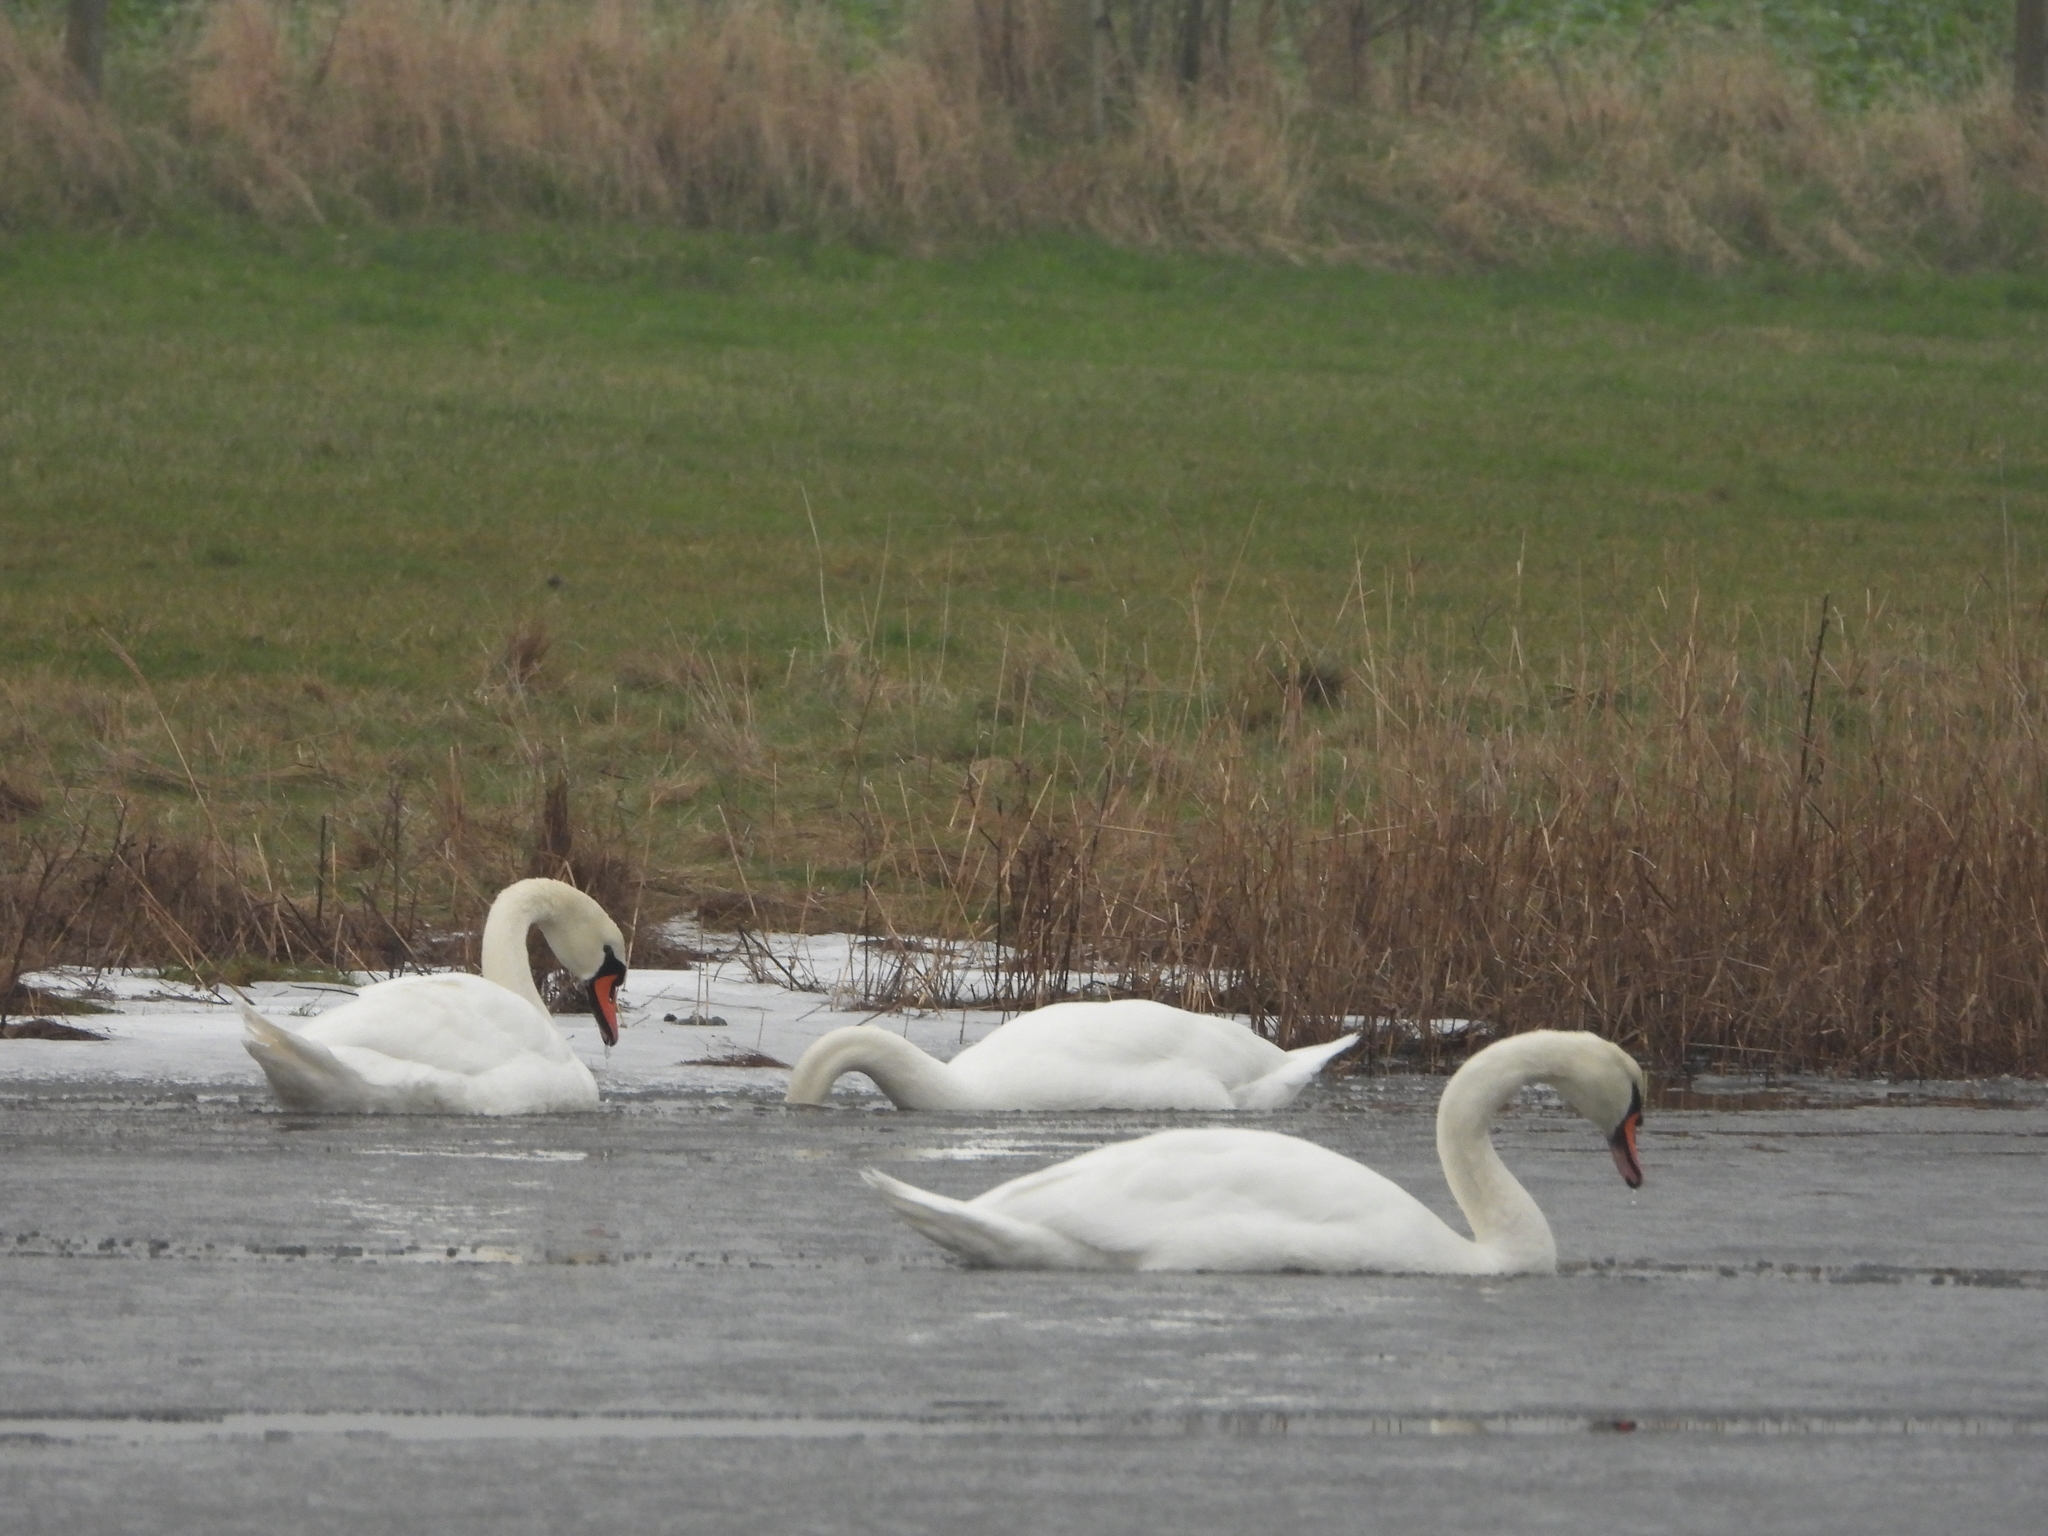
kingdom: Animalia
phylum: Chordata
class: Aves
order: Anseriformes
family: Anatidae
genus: Cygnus
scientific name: Cygnus olor
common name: Mute swan
